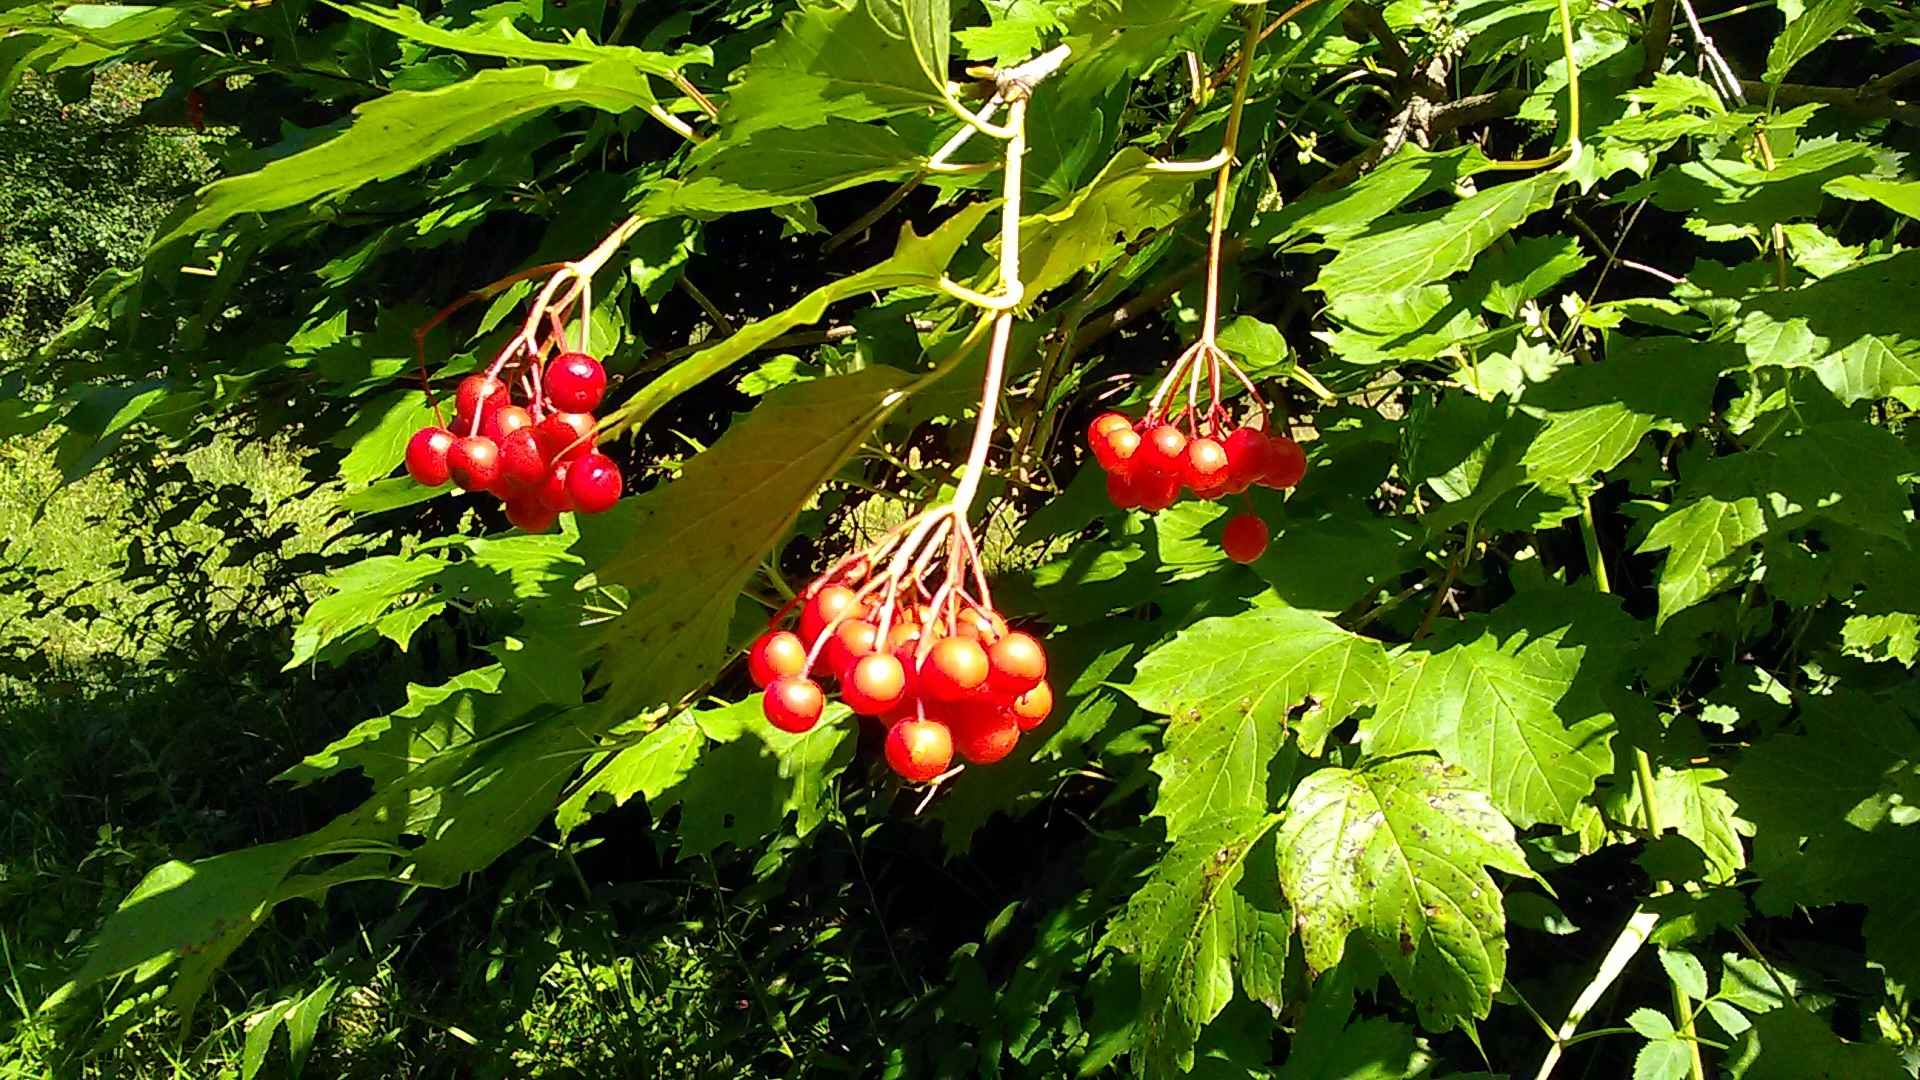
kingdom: Plantae
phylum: Tracheophyta
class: Magnoliopsida
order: Dipsacales
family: Viburnaceae
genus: Viburnum
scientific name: Viburnum opulus
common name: Guelder-rose
